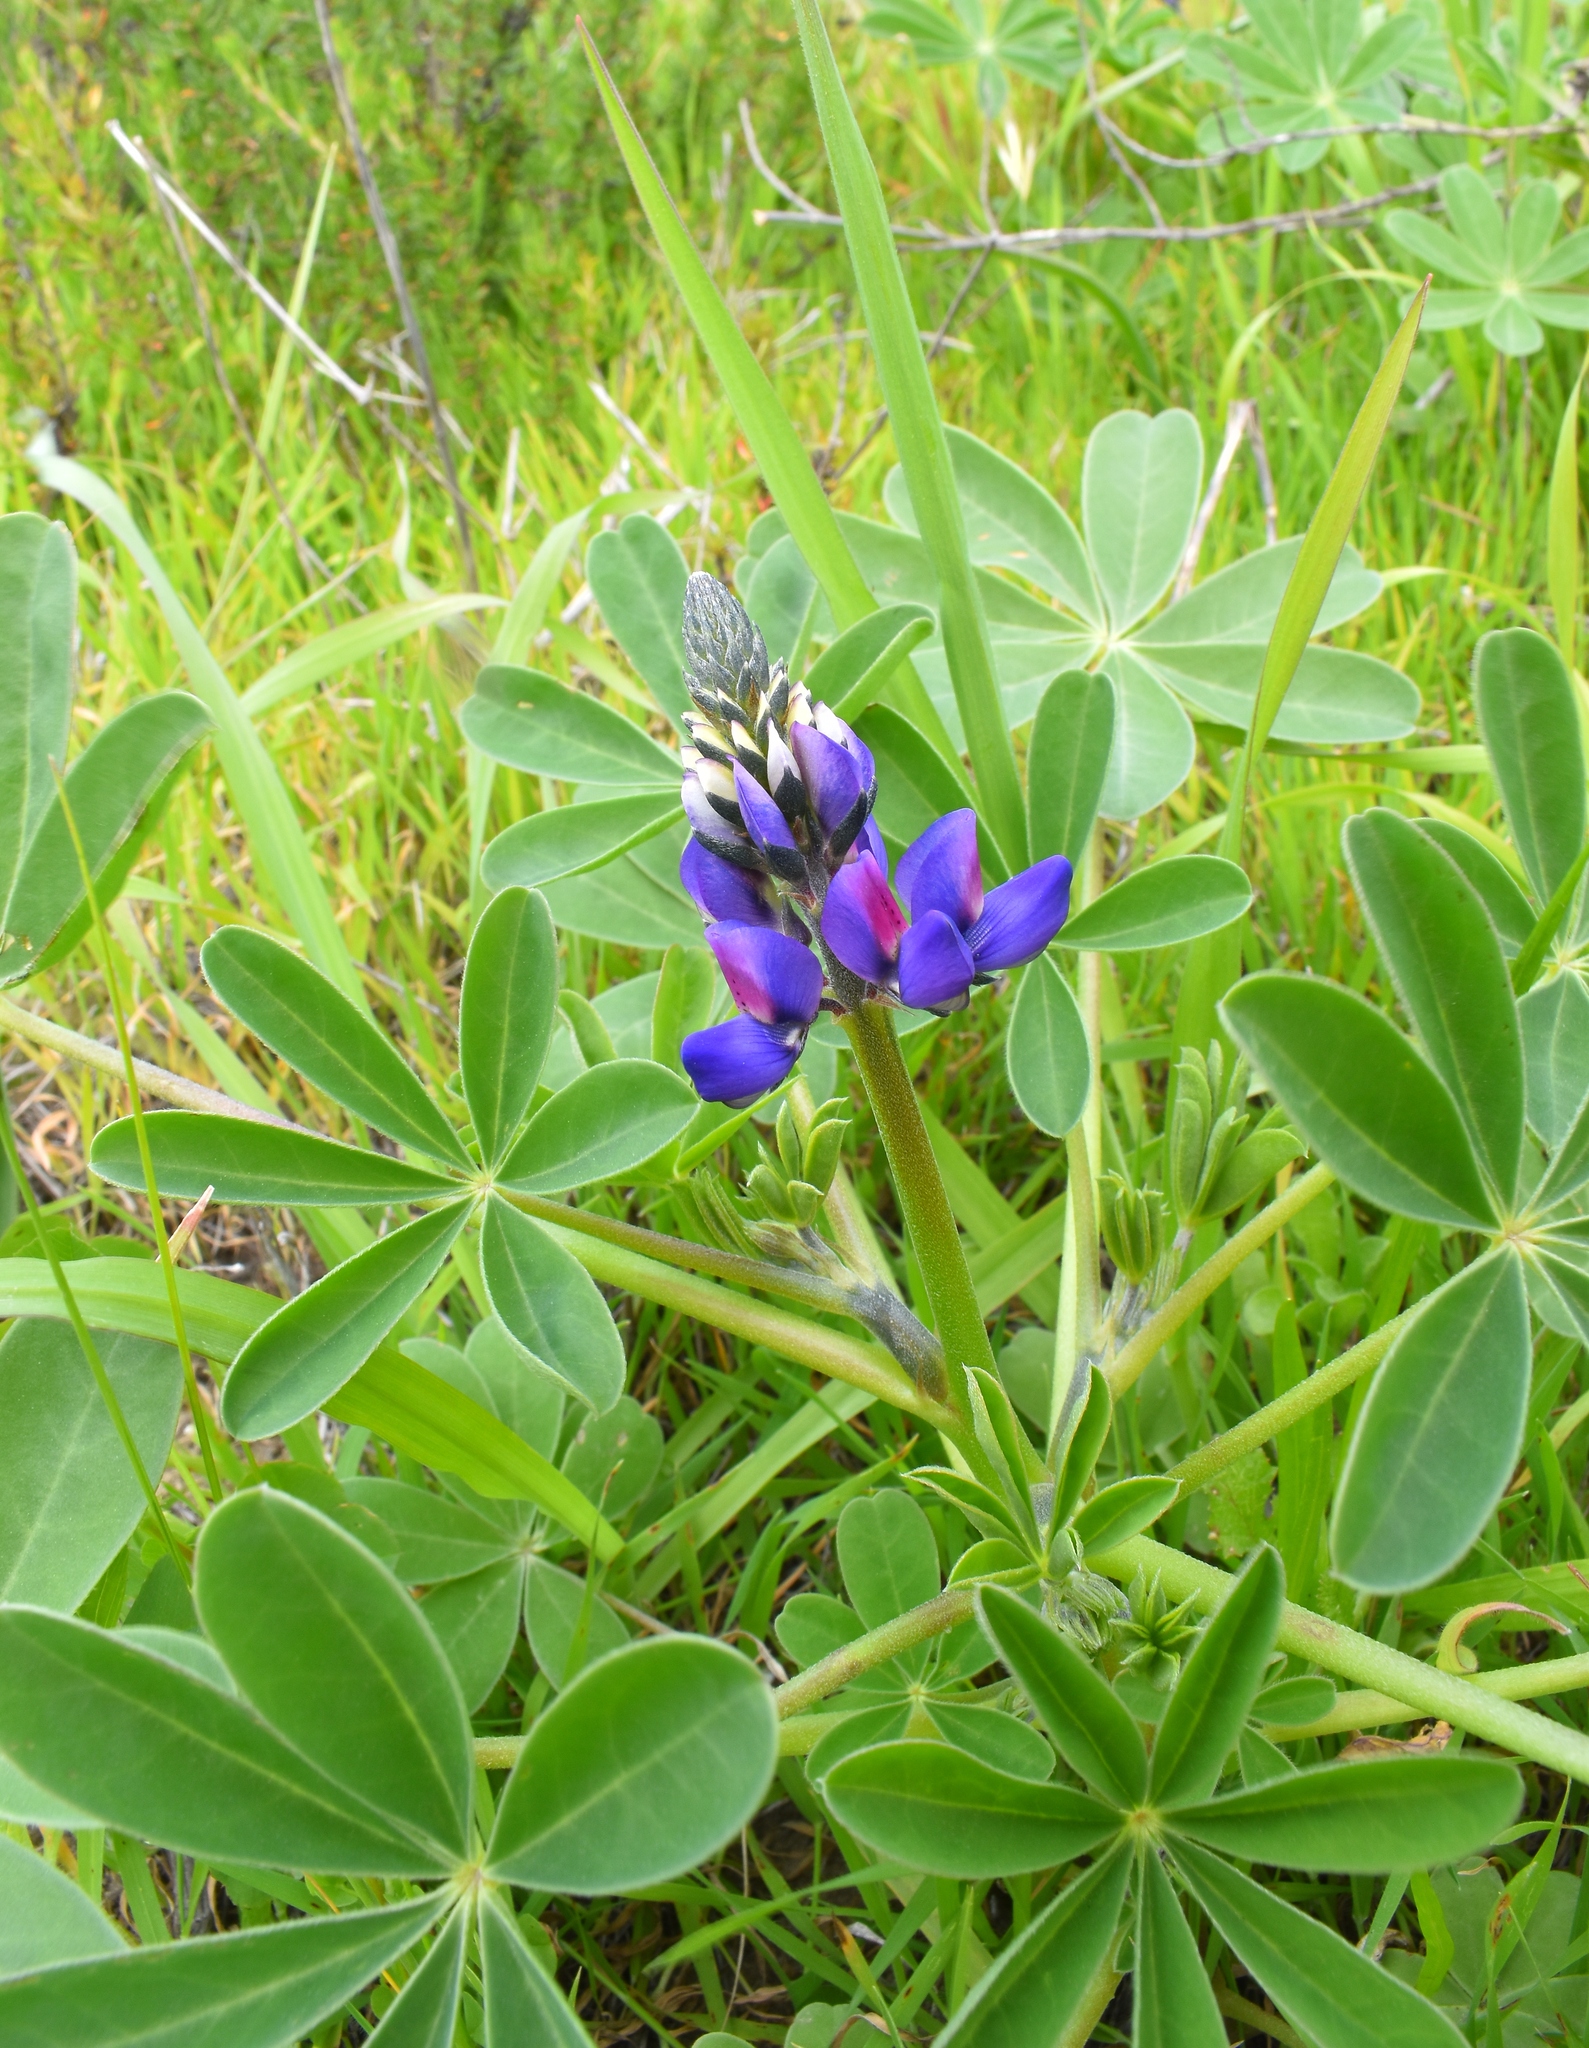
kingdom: Plantae
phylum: Tracheophyta
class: Magnoliopsida
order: Fabales
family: Fabaceae
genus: Lupinus
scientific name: Lupinus succulentus
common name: Arroyo lupine
